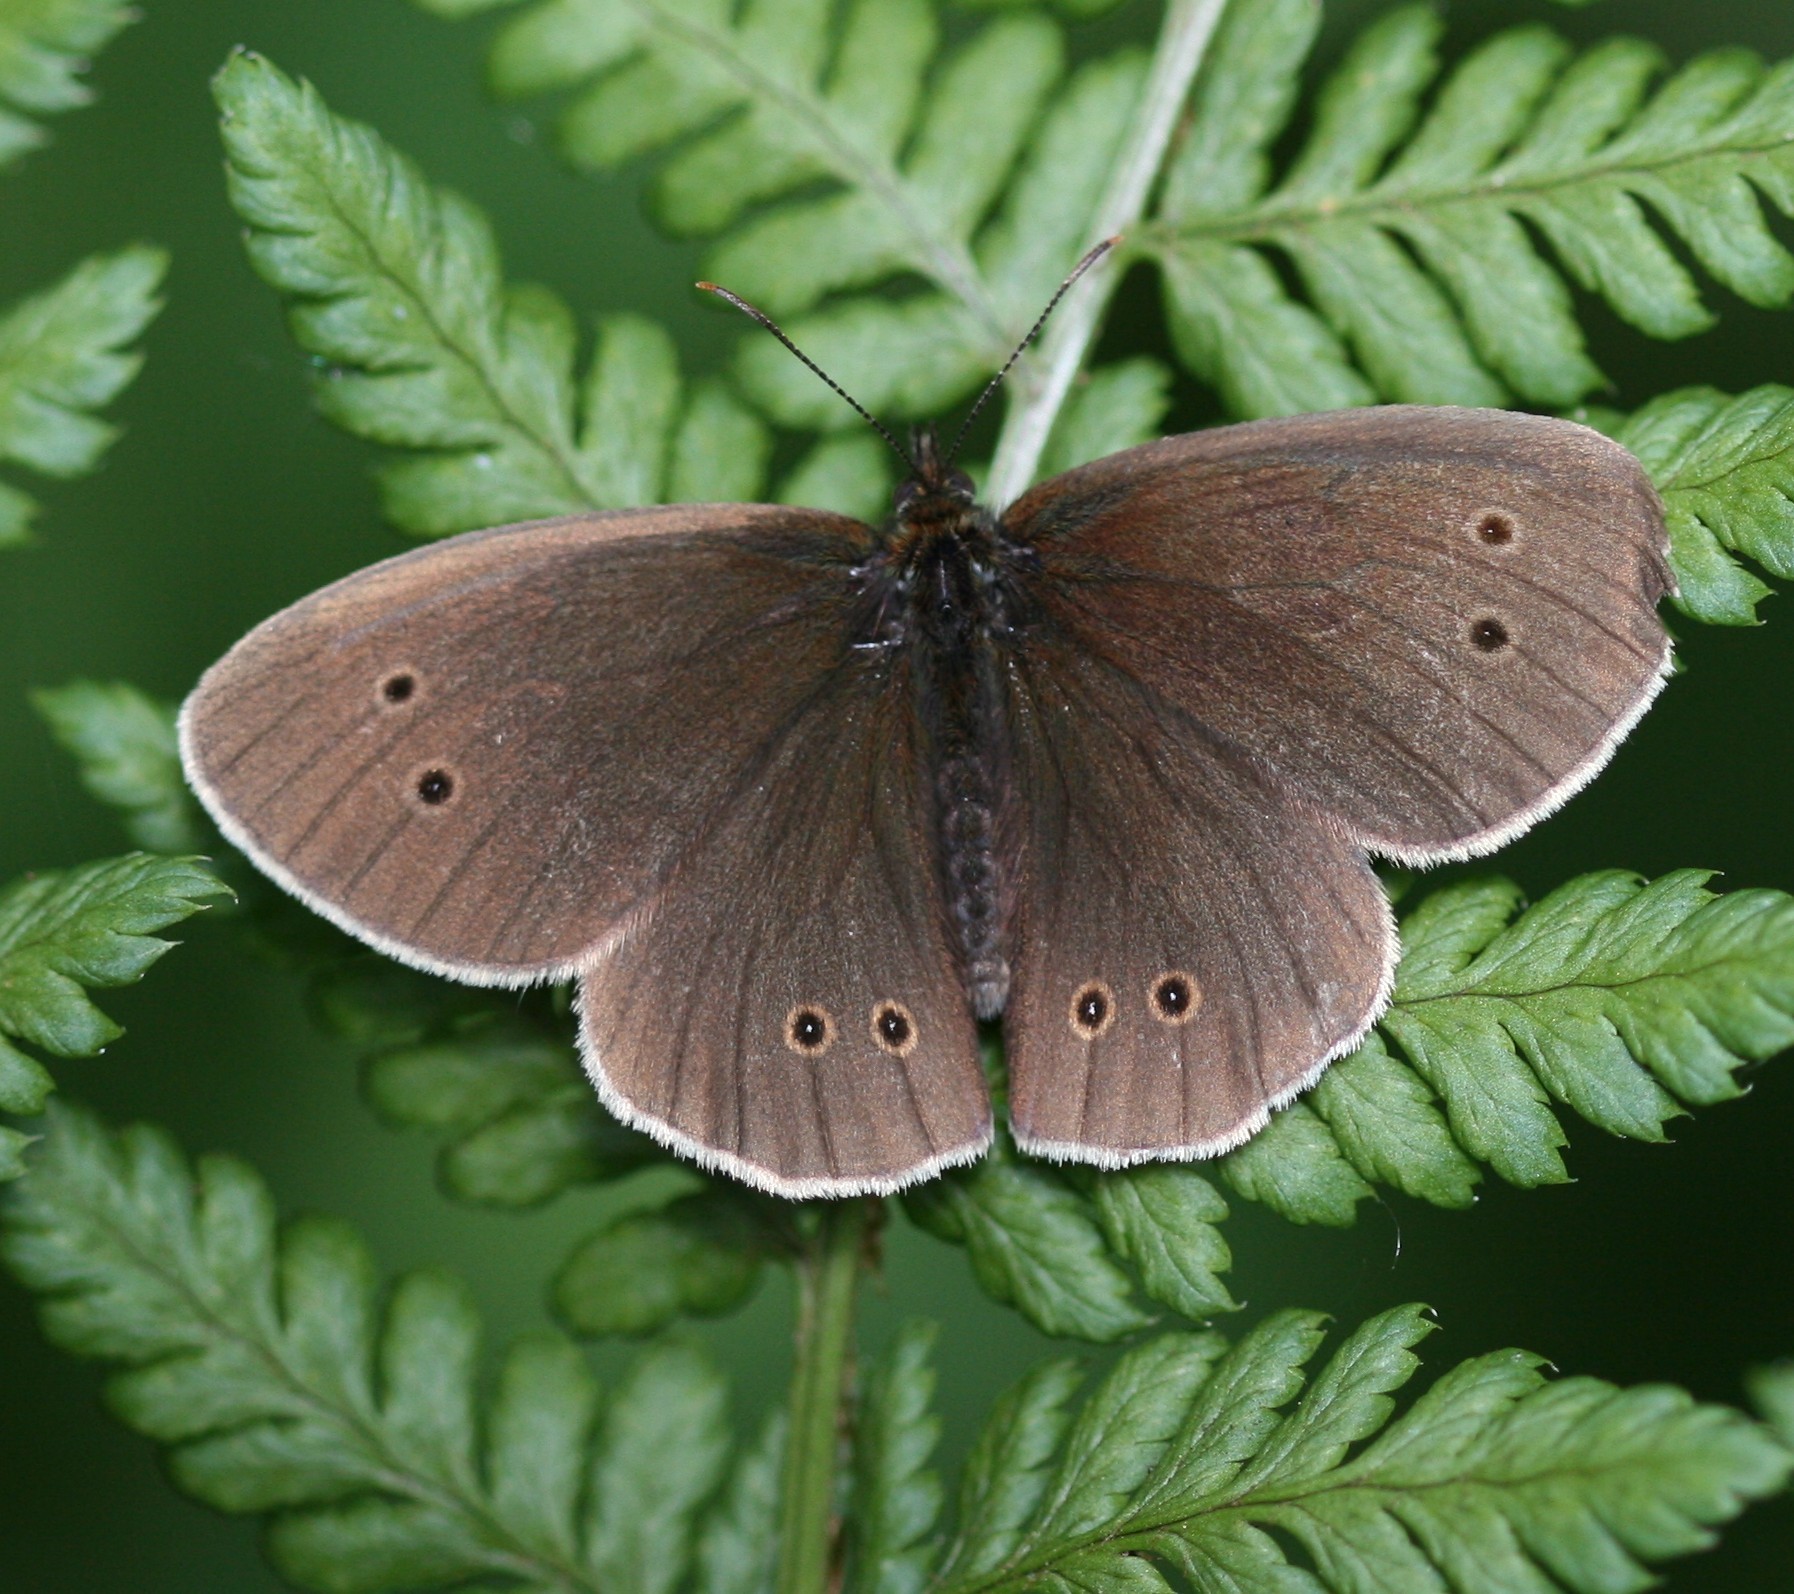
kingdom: Animalia
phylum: Arthropoda
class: Insecta
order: Lepidoptera
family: Nymphalidae
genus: Aphantopus
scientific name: Aphantopus hyperantus
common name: Ringlet
